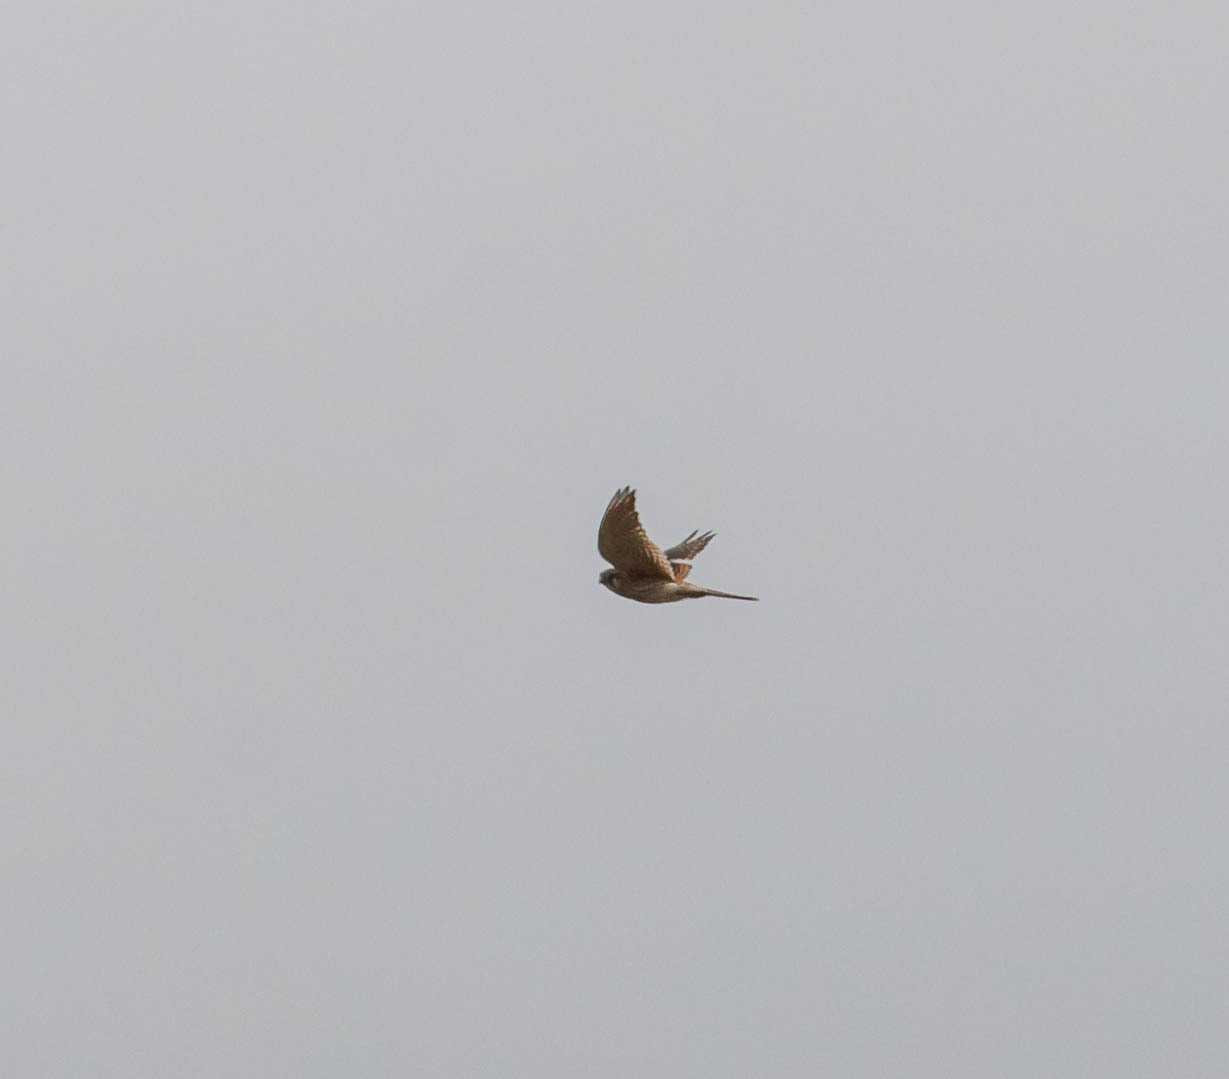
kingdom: Animalia
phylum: Chordata
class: Aves
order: Falconiformes
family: Falconidae
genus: Falco
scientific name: Falco sparverius
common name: American kestrel
